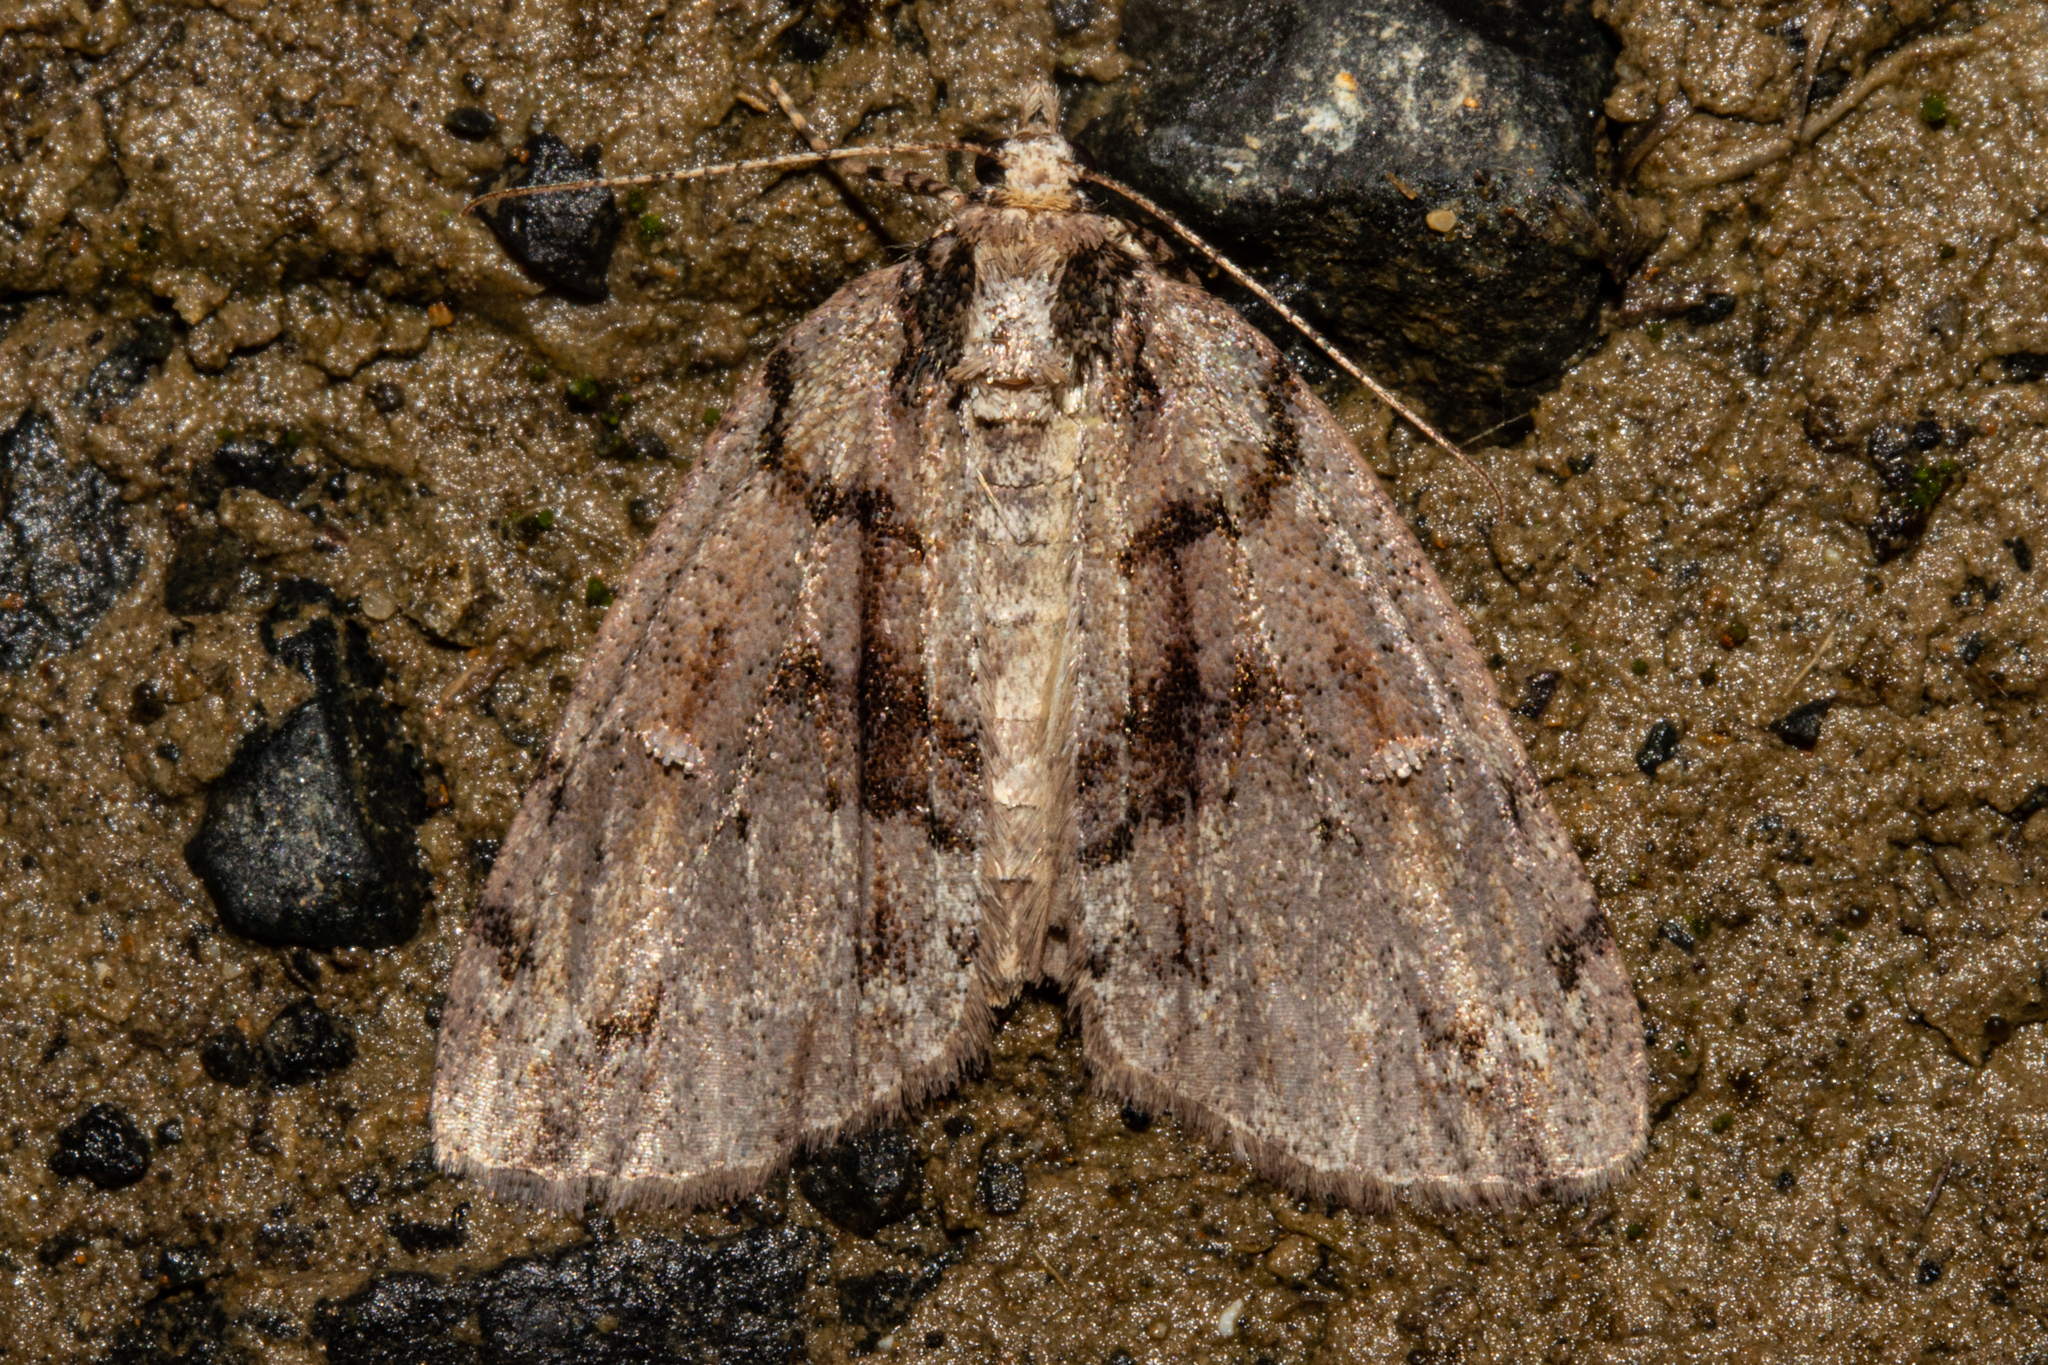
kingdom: Animalia
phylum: Arthropoda
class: Insecta
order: Lepidoptera
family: Geometridae
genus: Pseudocoremia
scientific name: Pseudocoremia suavis
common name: Common forest looper
